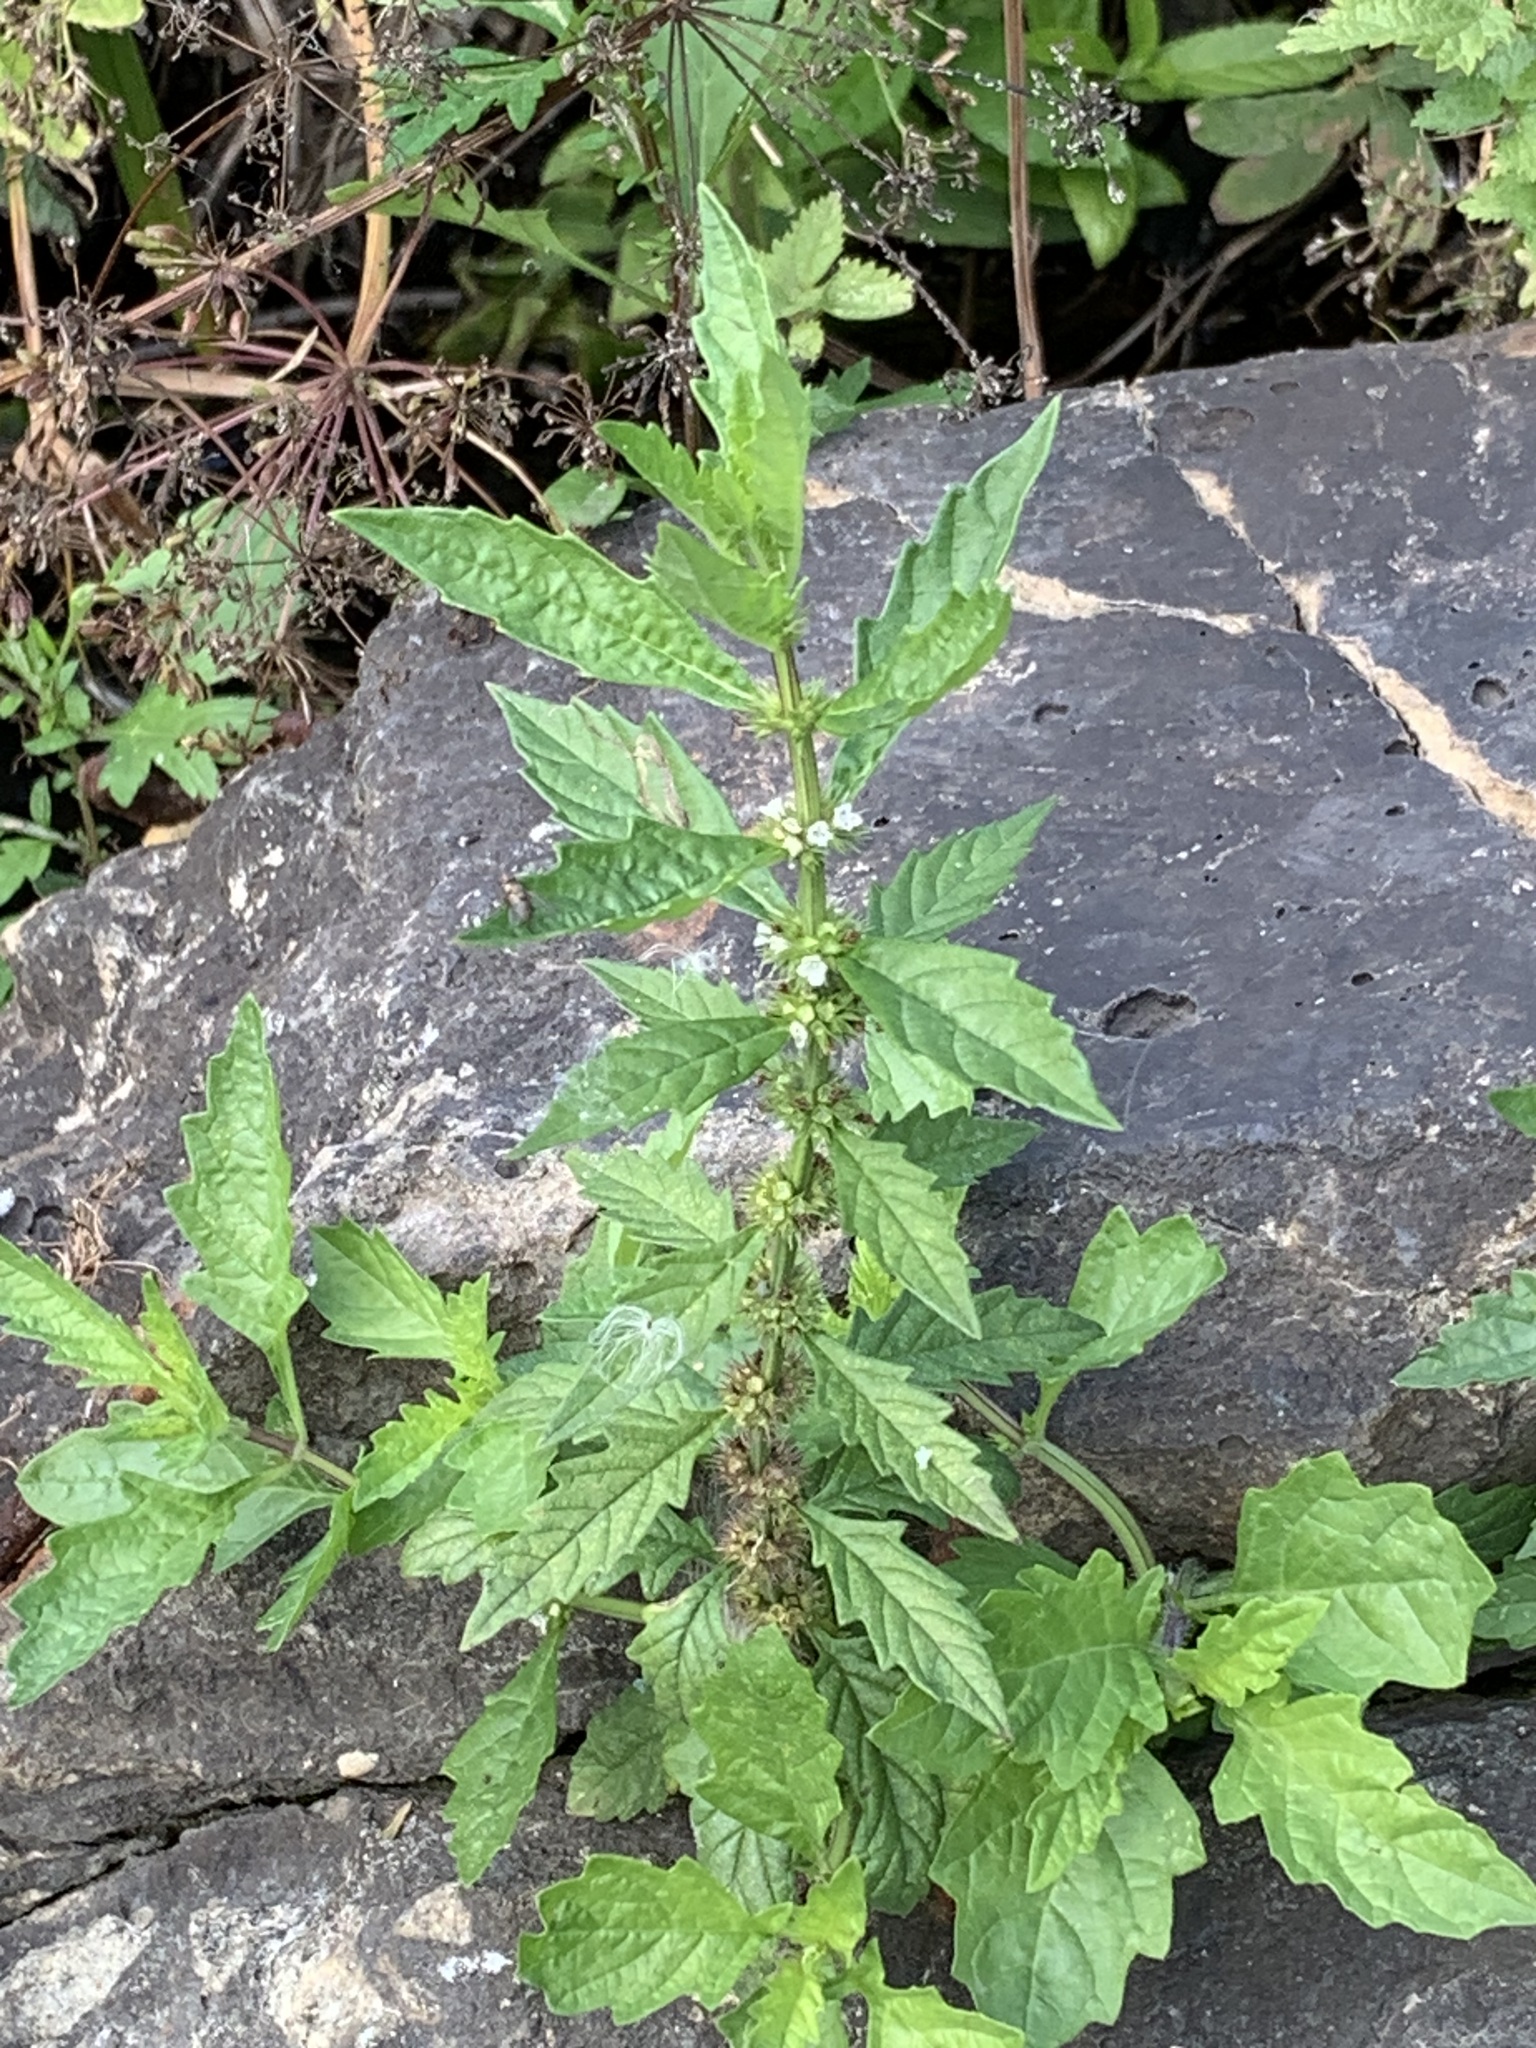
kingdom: Plantae
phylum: Tracheophyta
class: Magnoliopsida
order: Lamiales
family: Lamiaceae
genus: Lycopus
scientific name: Lycopus europaeus
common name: European bugleweed
